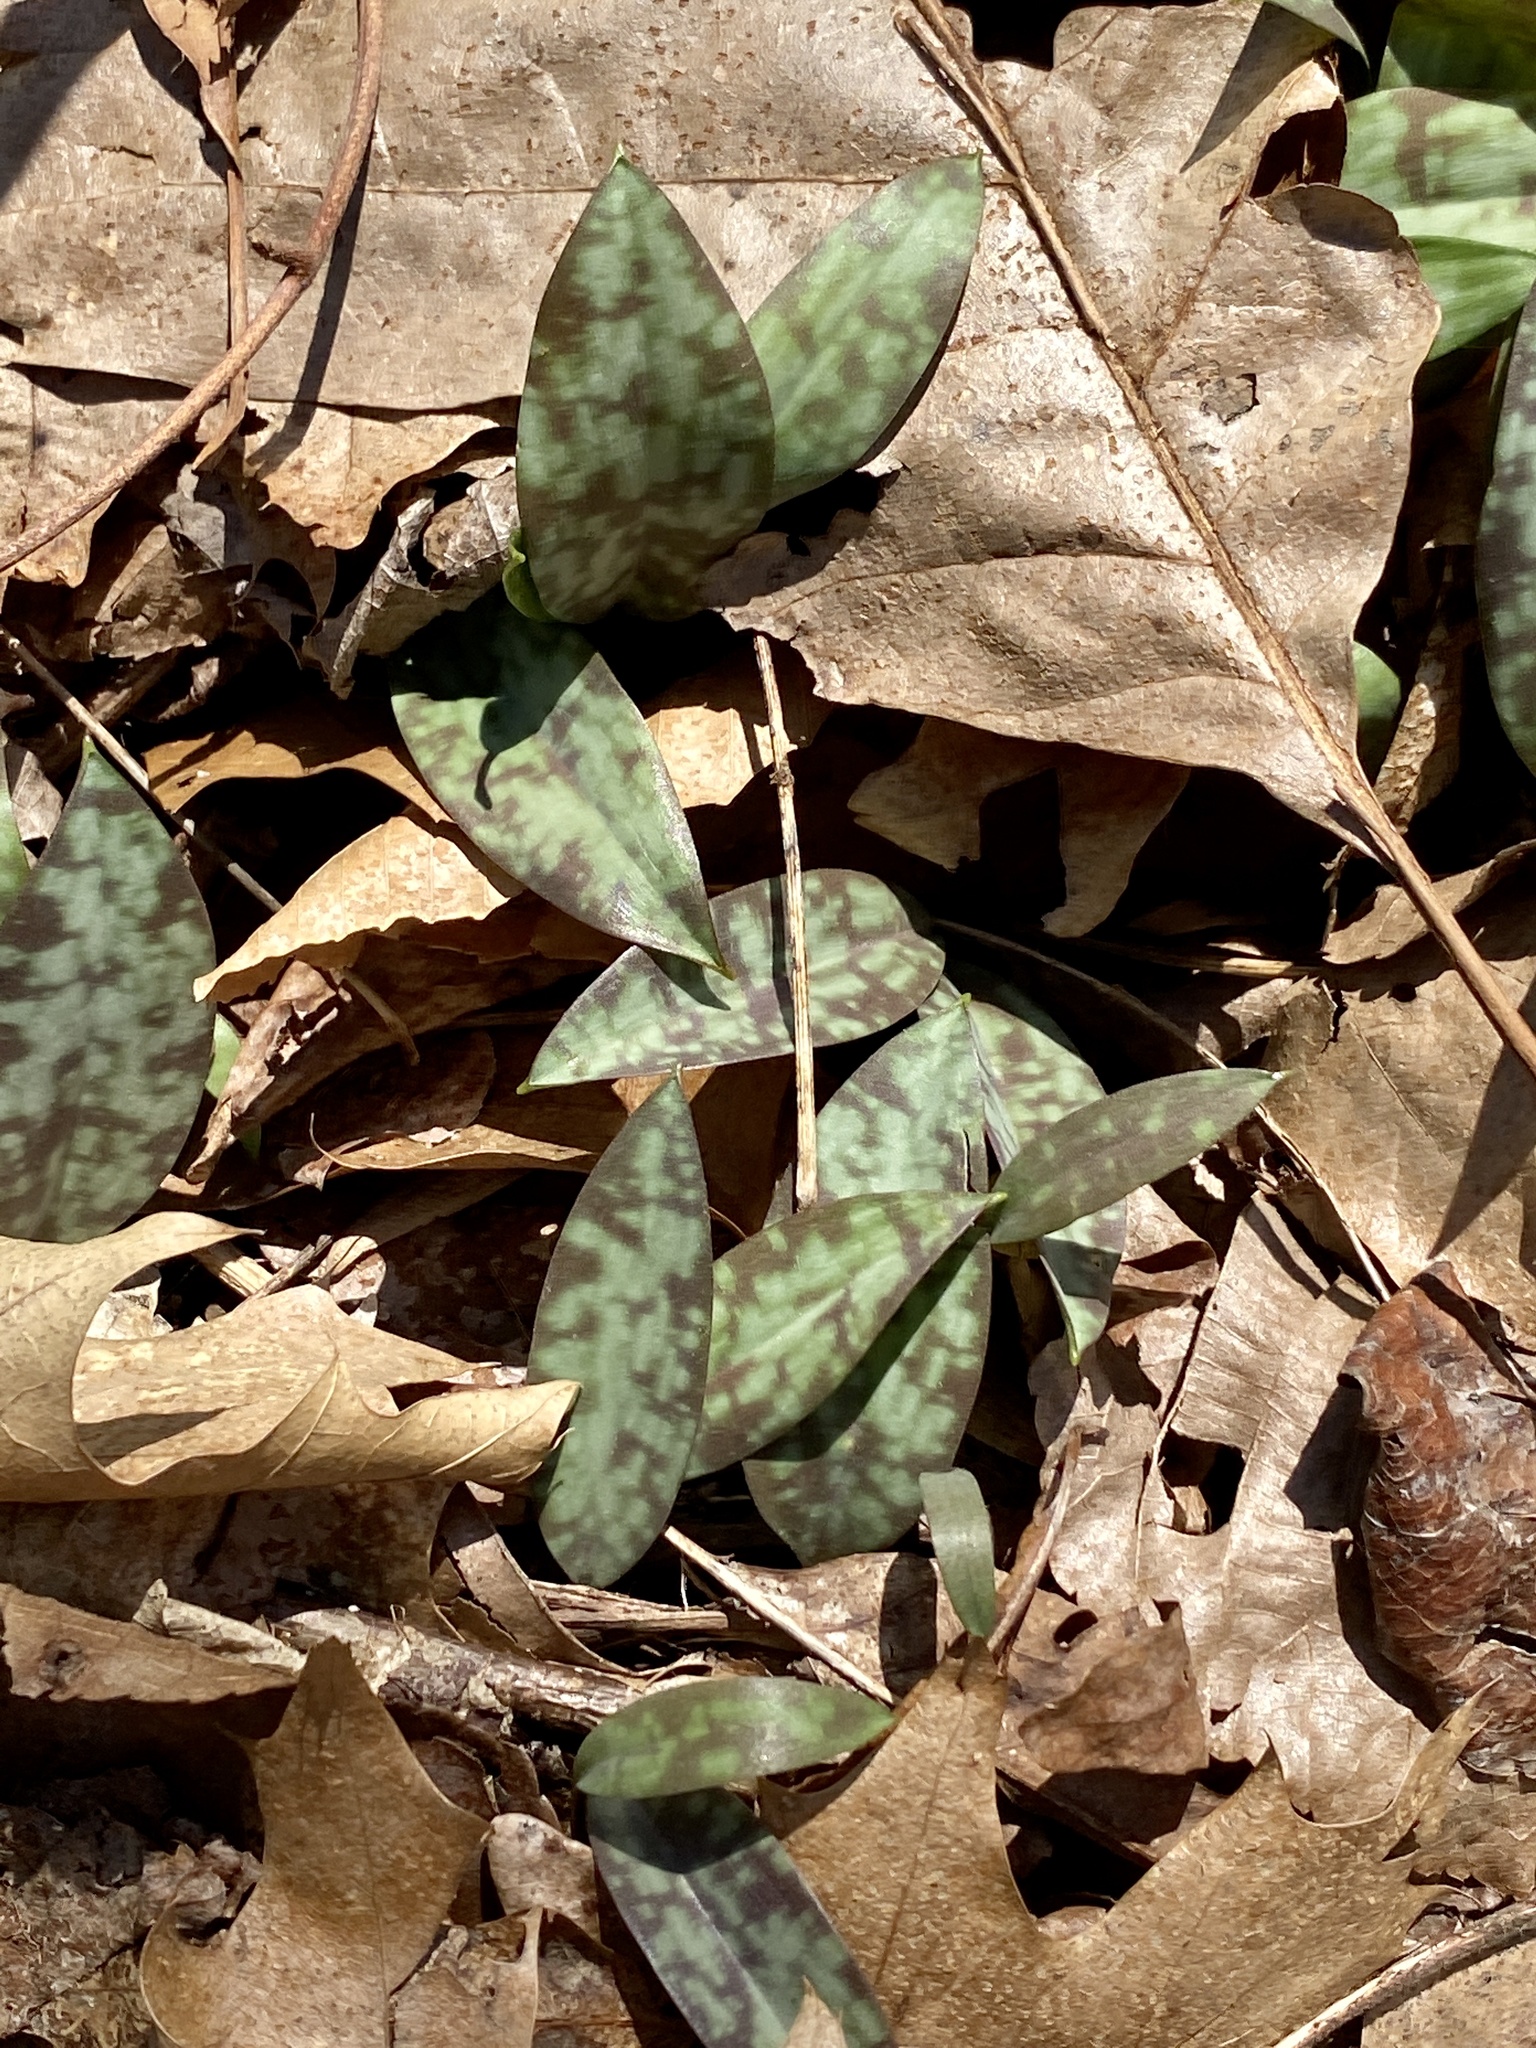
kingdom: Plantae
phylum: Tracheophyta
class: Liliopsida
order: Liliales
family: Liliaceae
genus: Erythronium
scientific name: Erythronium americanum
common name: Yellow adder's-tongue
